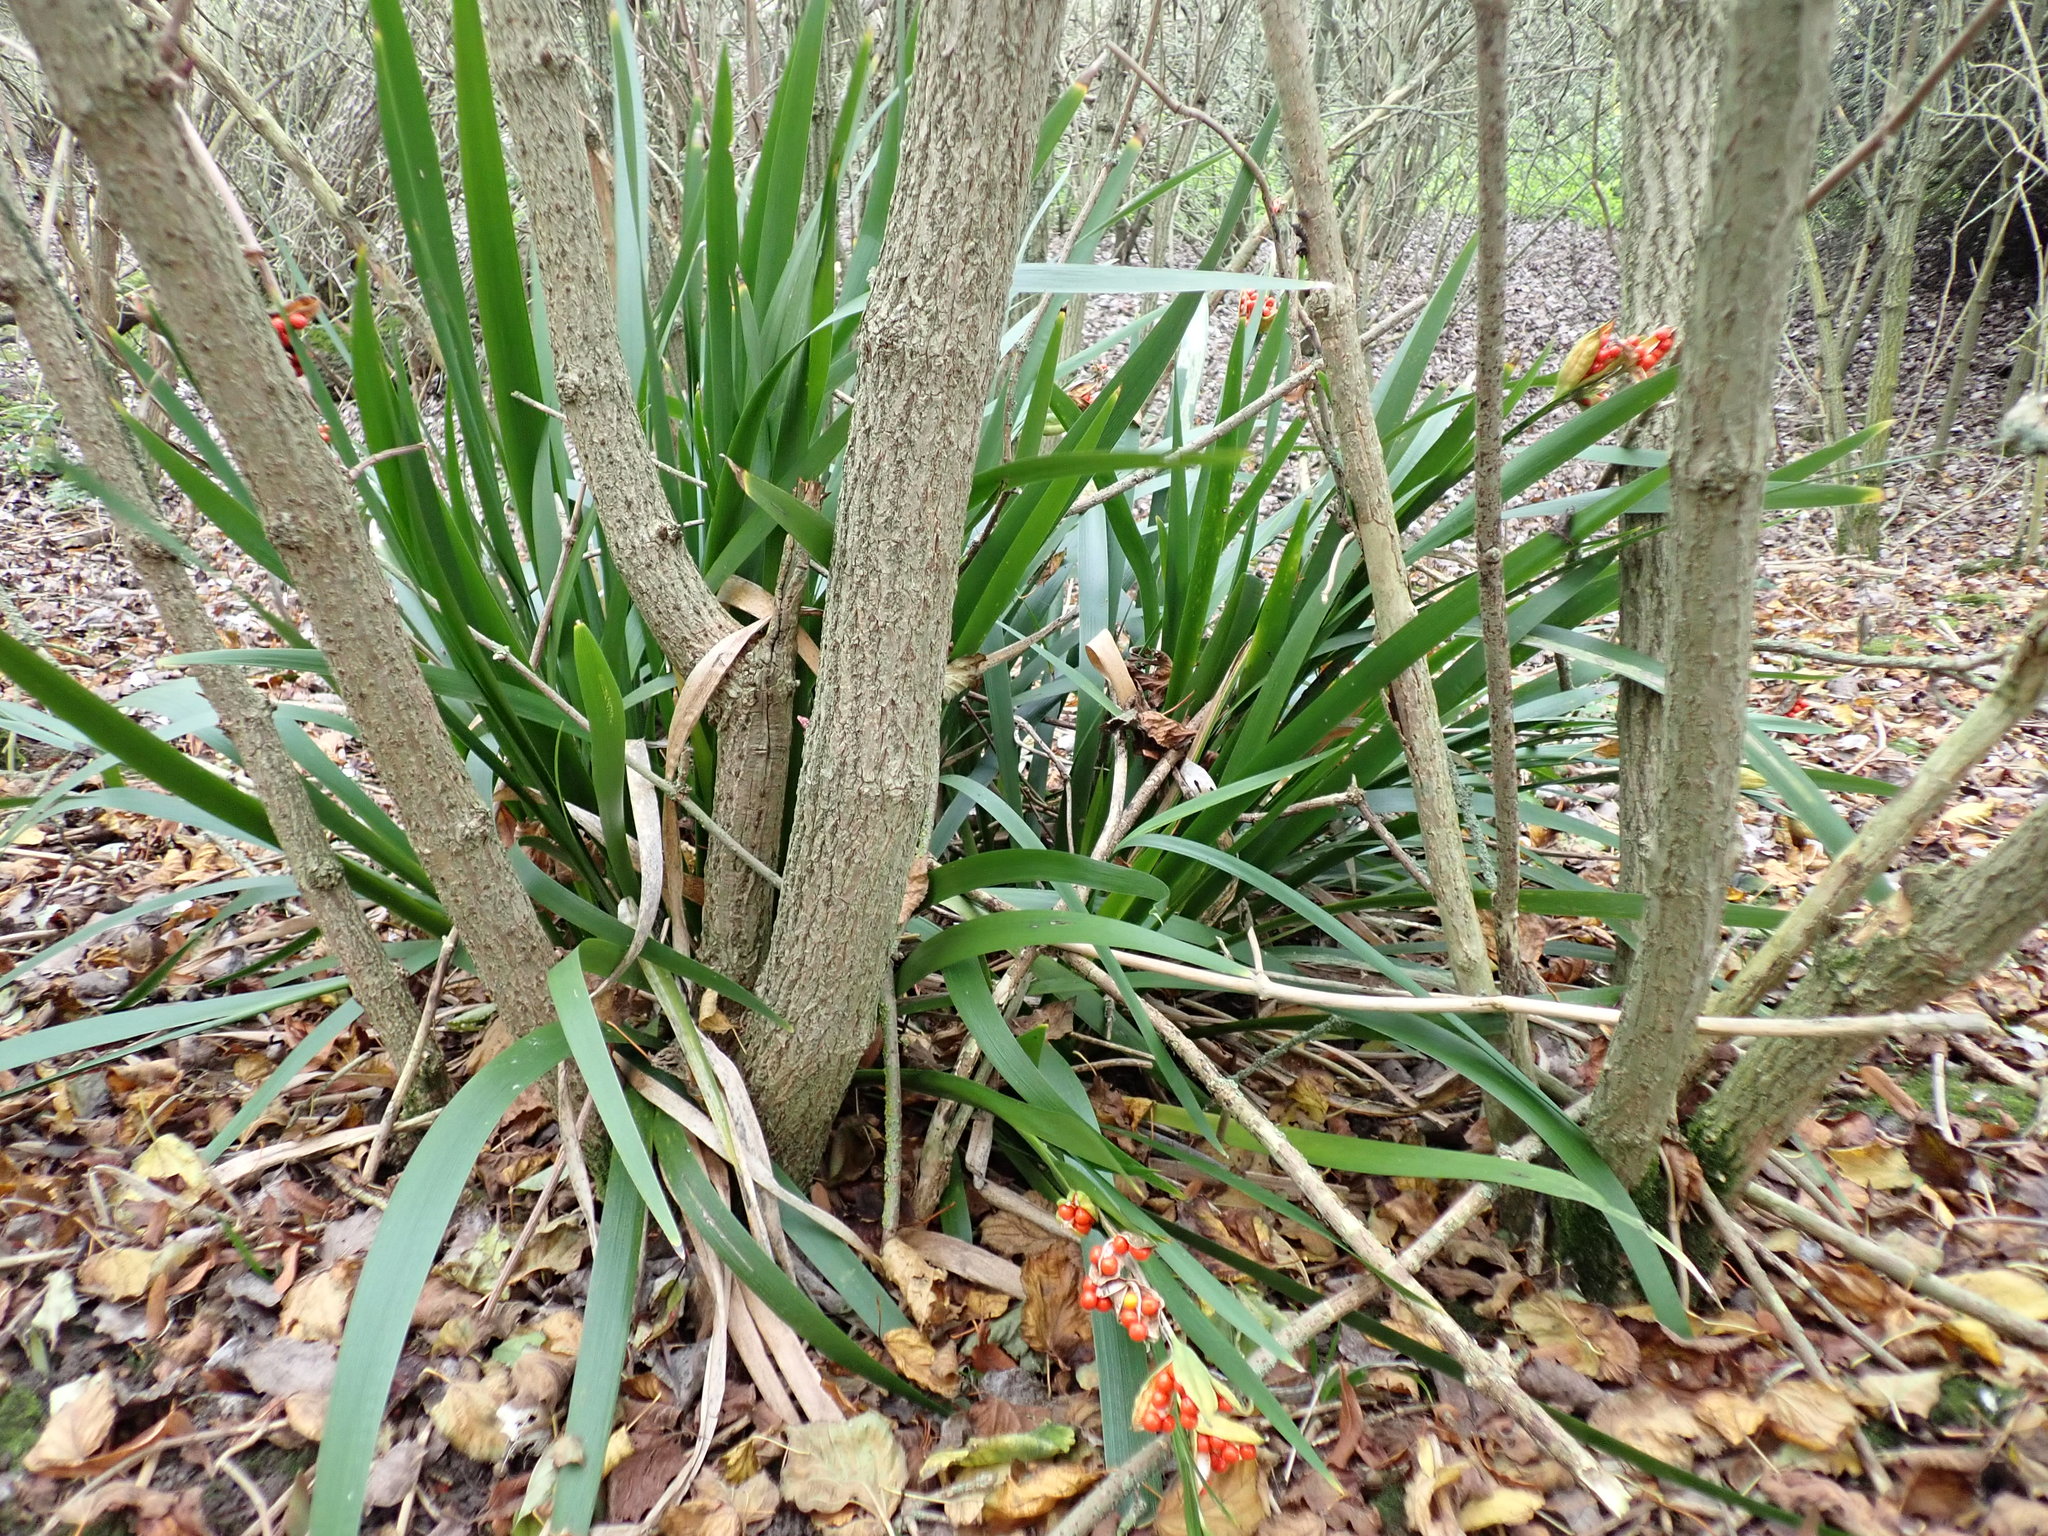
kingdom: Plantae
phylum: Tracheophyta
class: Liliopsida
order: Asparagales
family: Iridaceae
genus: Iris
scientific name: Iris foetidissima
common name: Stinking iris
